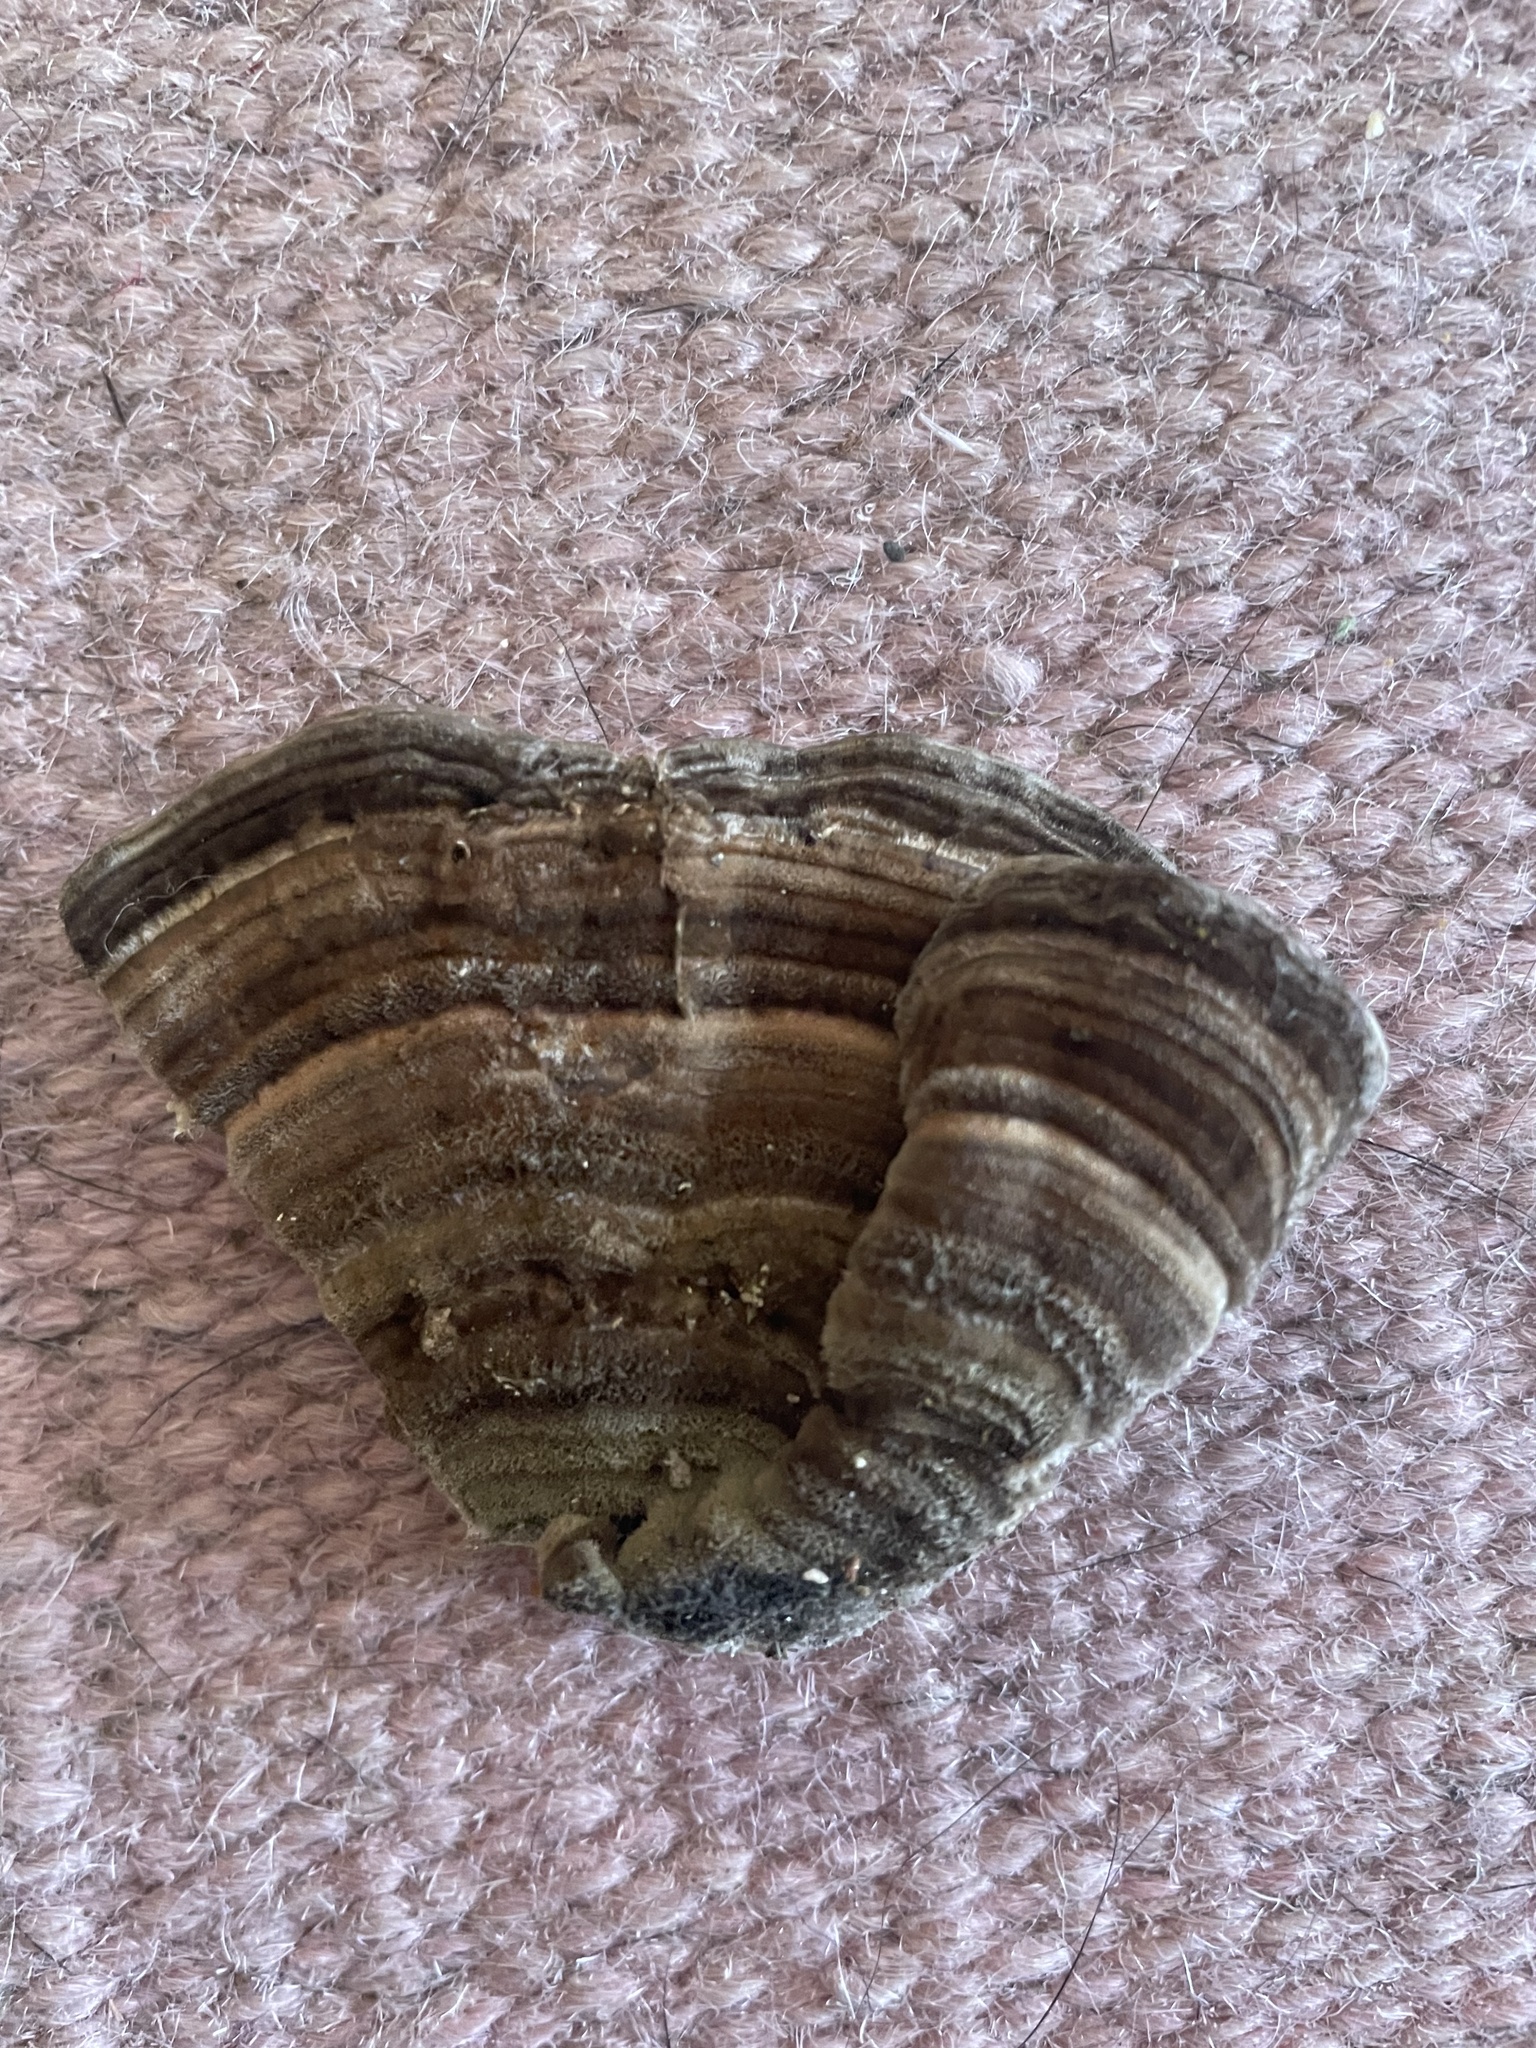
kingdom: Fungi
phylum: Basidiomycota
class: Agaricomycetes
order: Polyporales
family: Polyporaceae
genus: Lenzites
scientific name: Lenzites betulinus
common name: Birch mazegill
